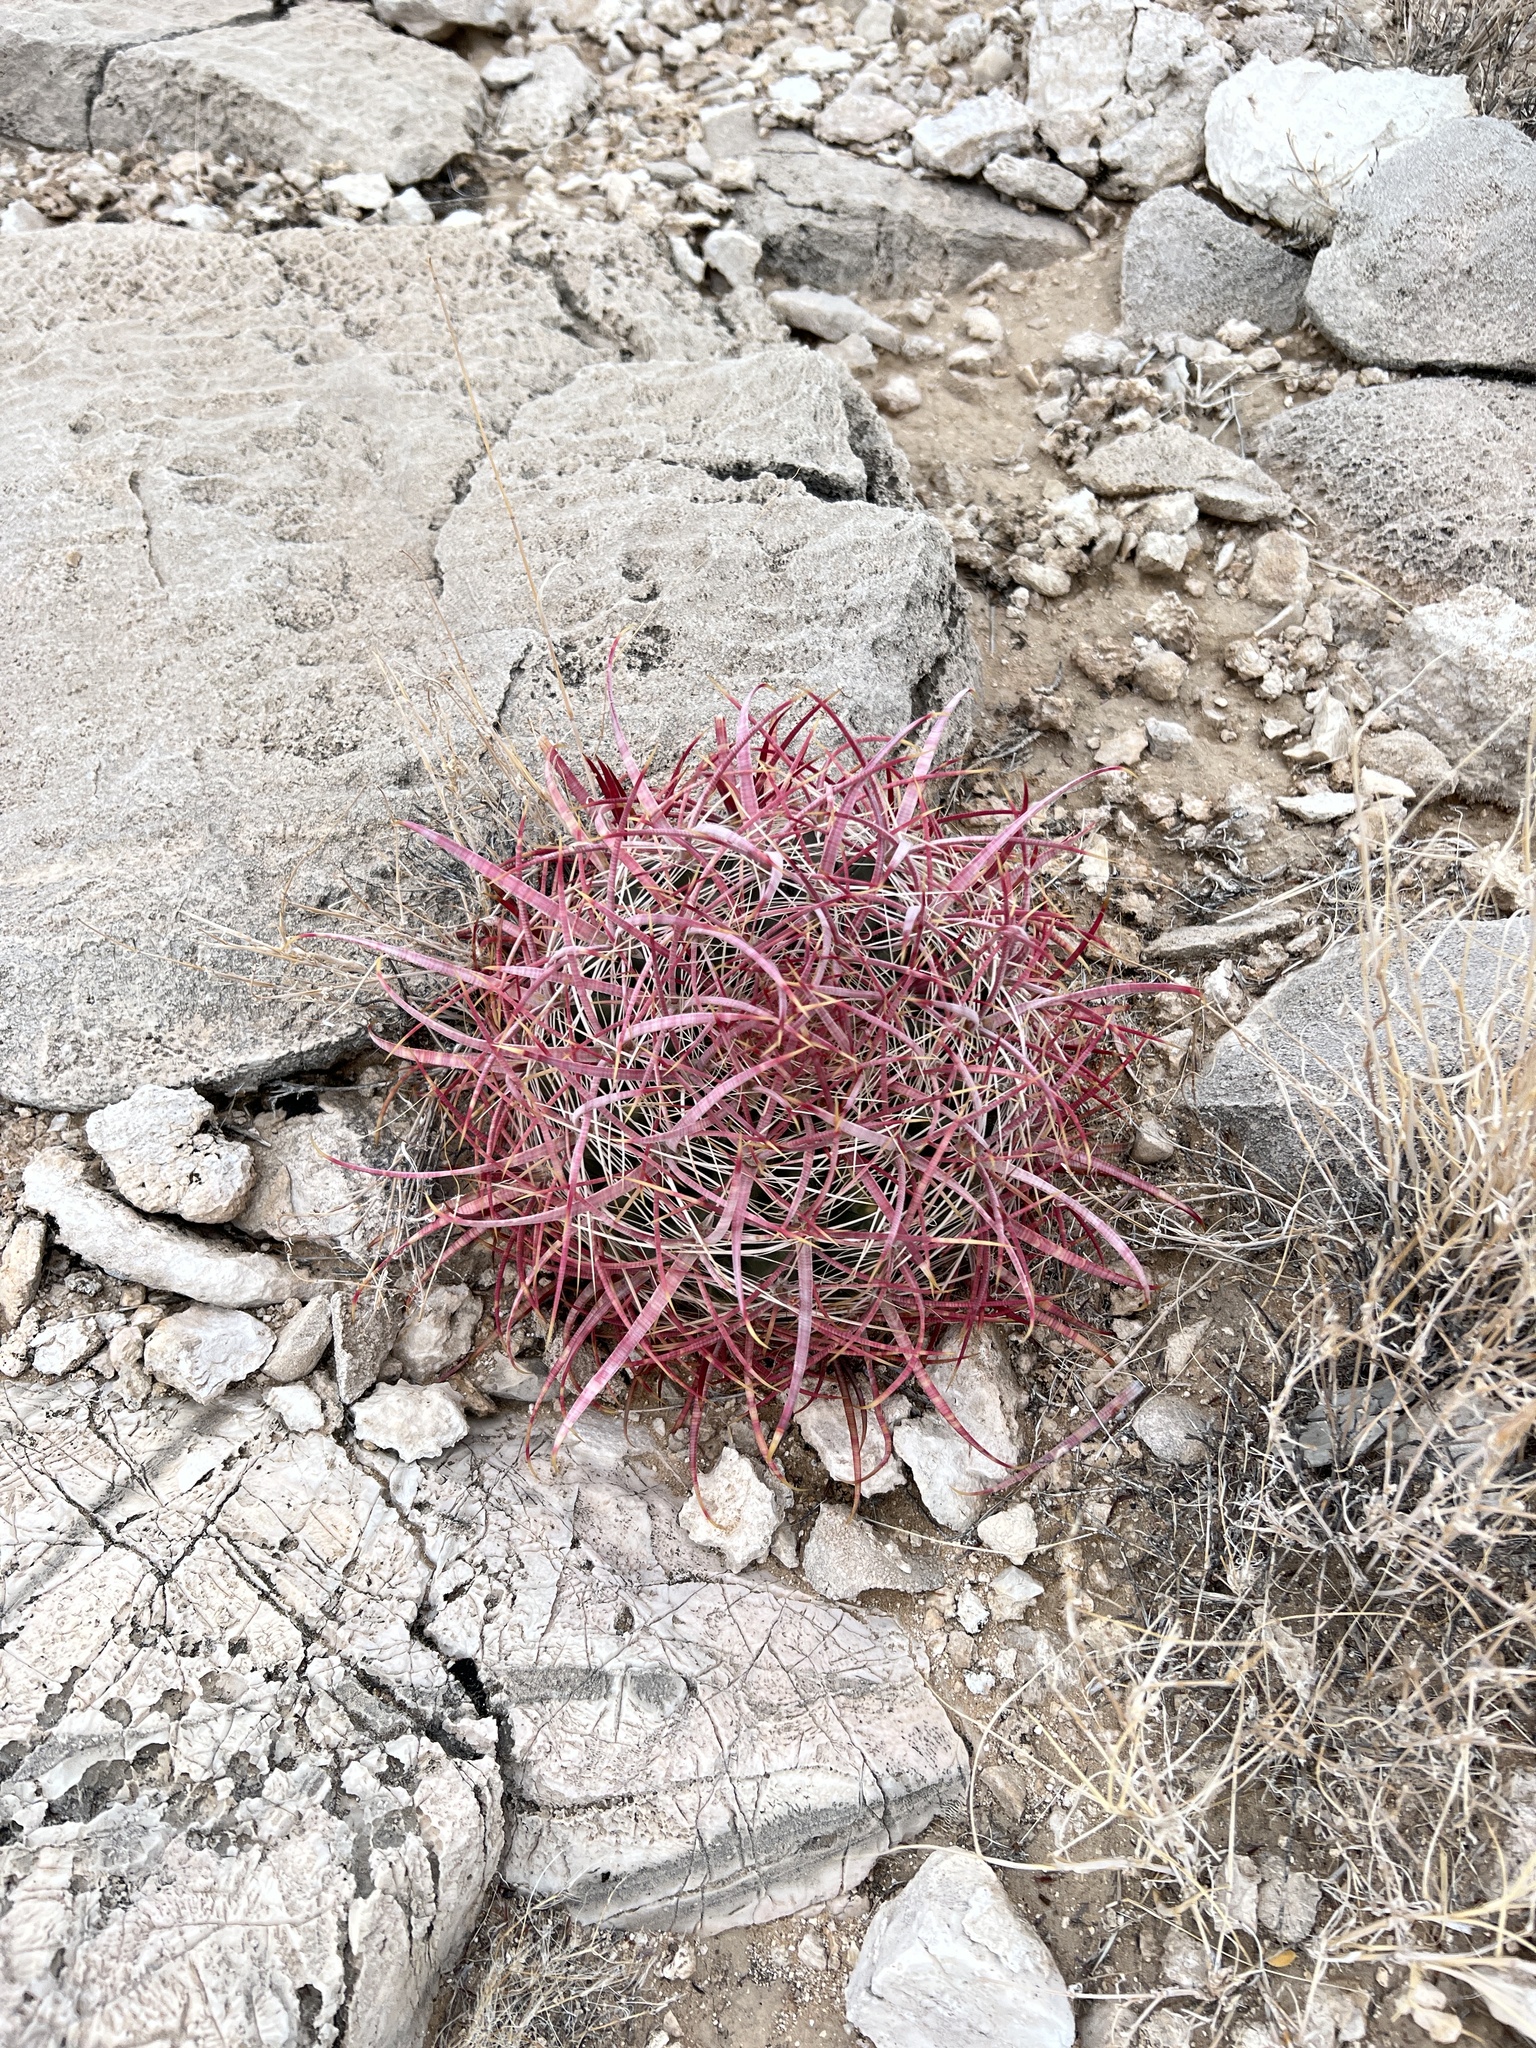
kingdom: Plantae
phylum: Tracheophyta
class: Magnoliopsida
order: Caryophyllales
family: Cactaceae
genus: Ferocactus
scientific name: Ferocactus cylindraceus
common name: California barrel cactus
